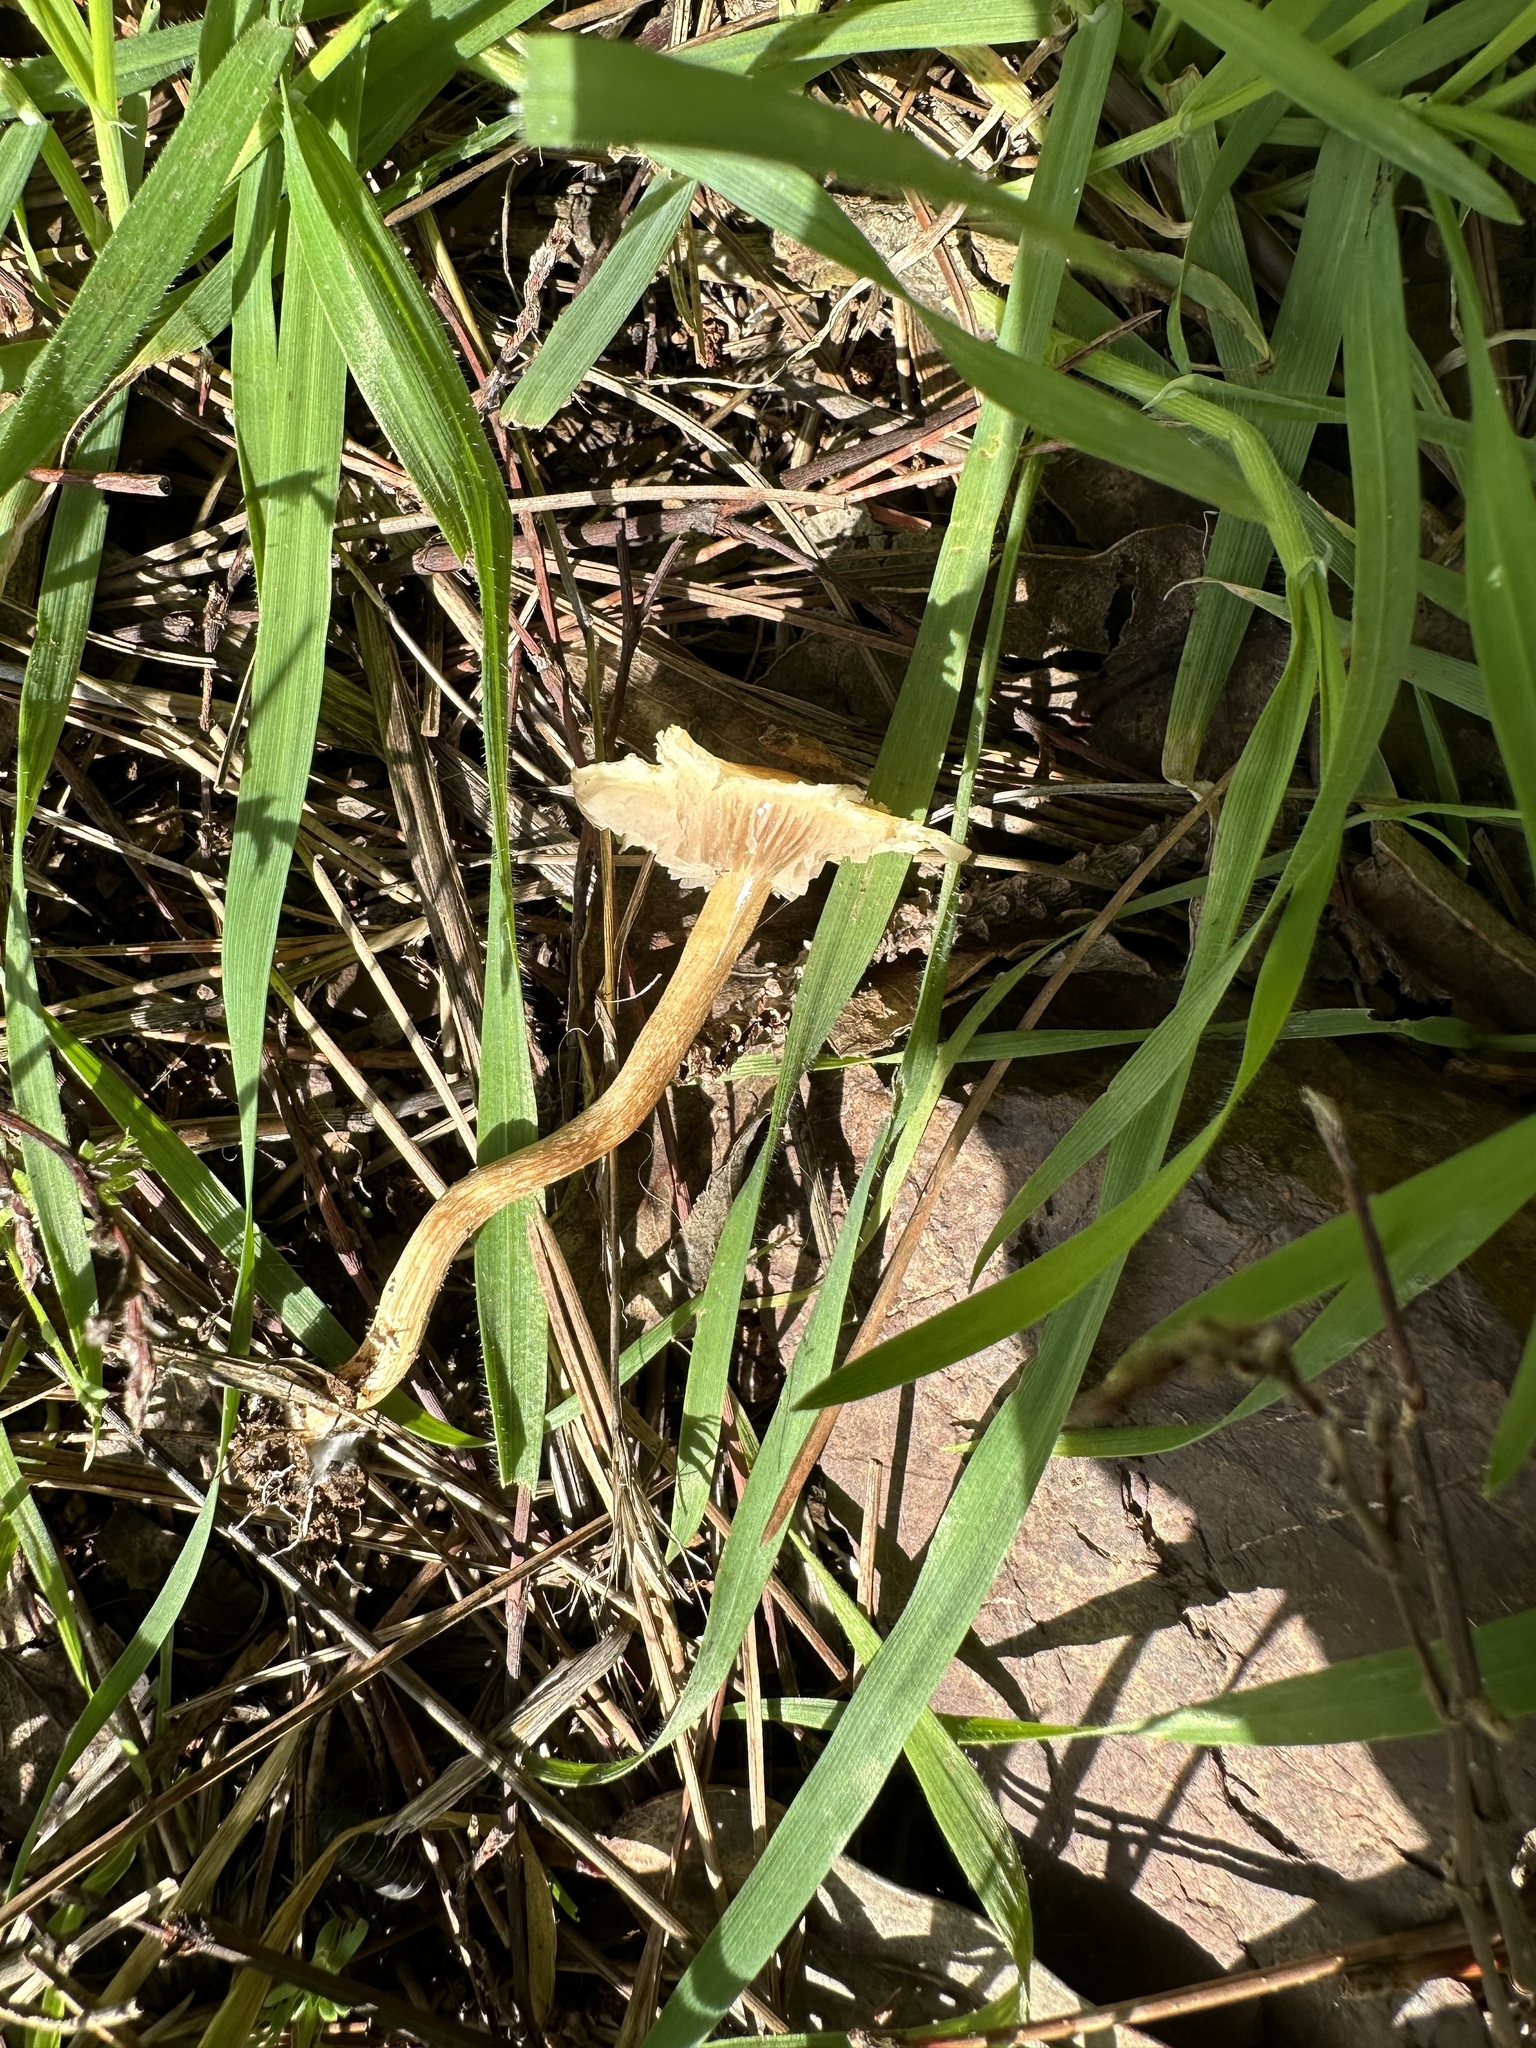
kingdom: Fungi
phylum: Basidiomycota
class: Agaricomycetes
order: Agaricales
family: Strophariaceae
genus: Leratiomyces
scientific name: Leratiomyces percevalii
